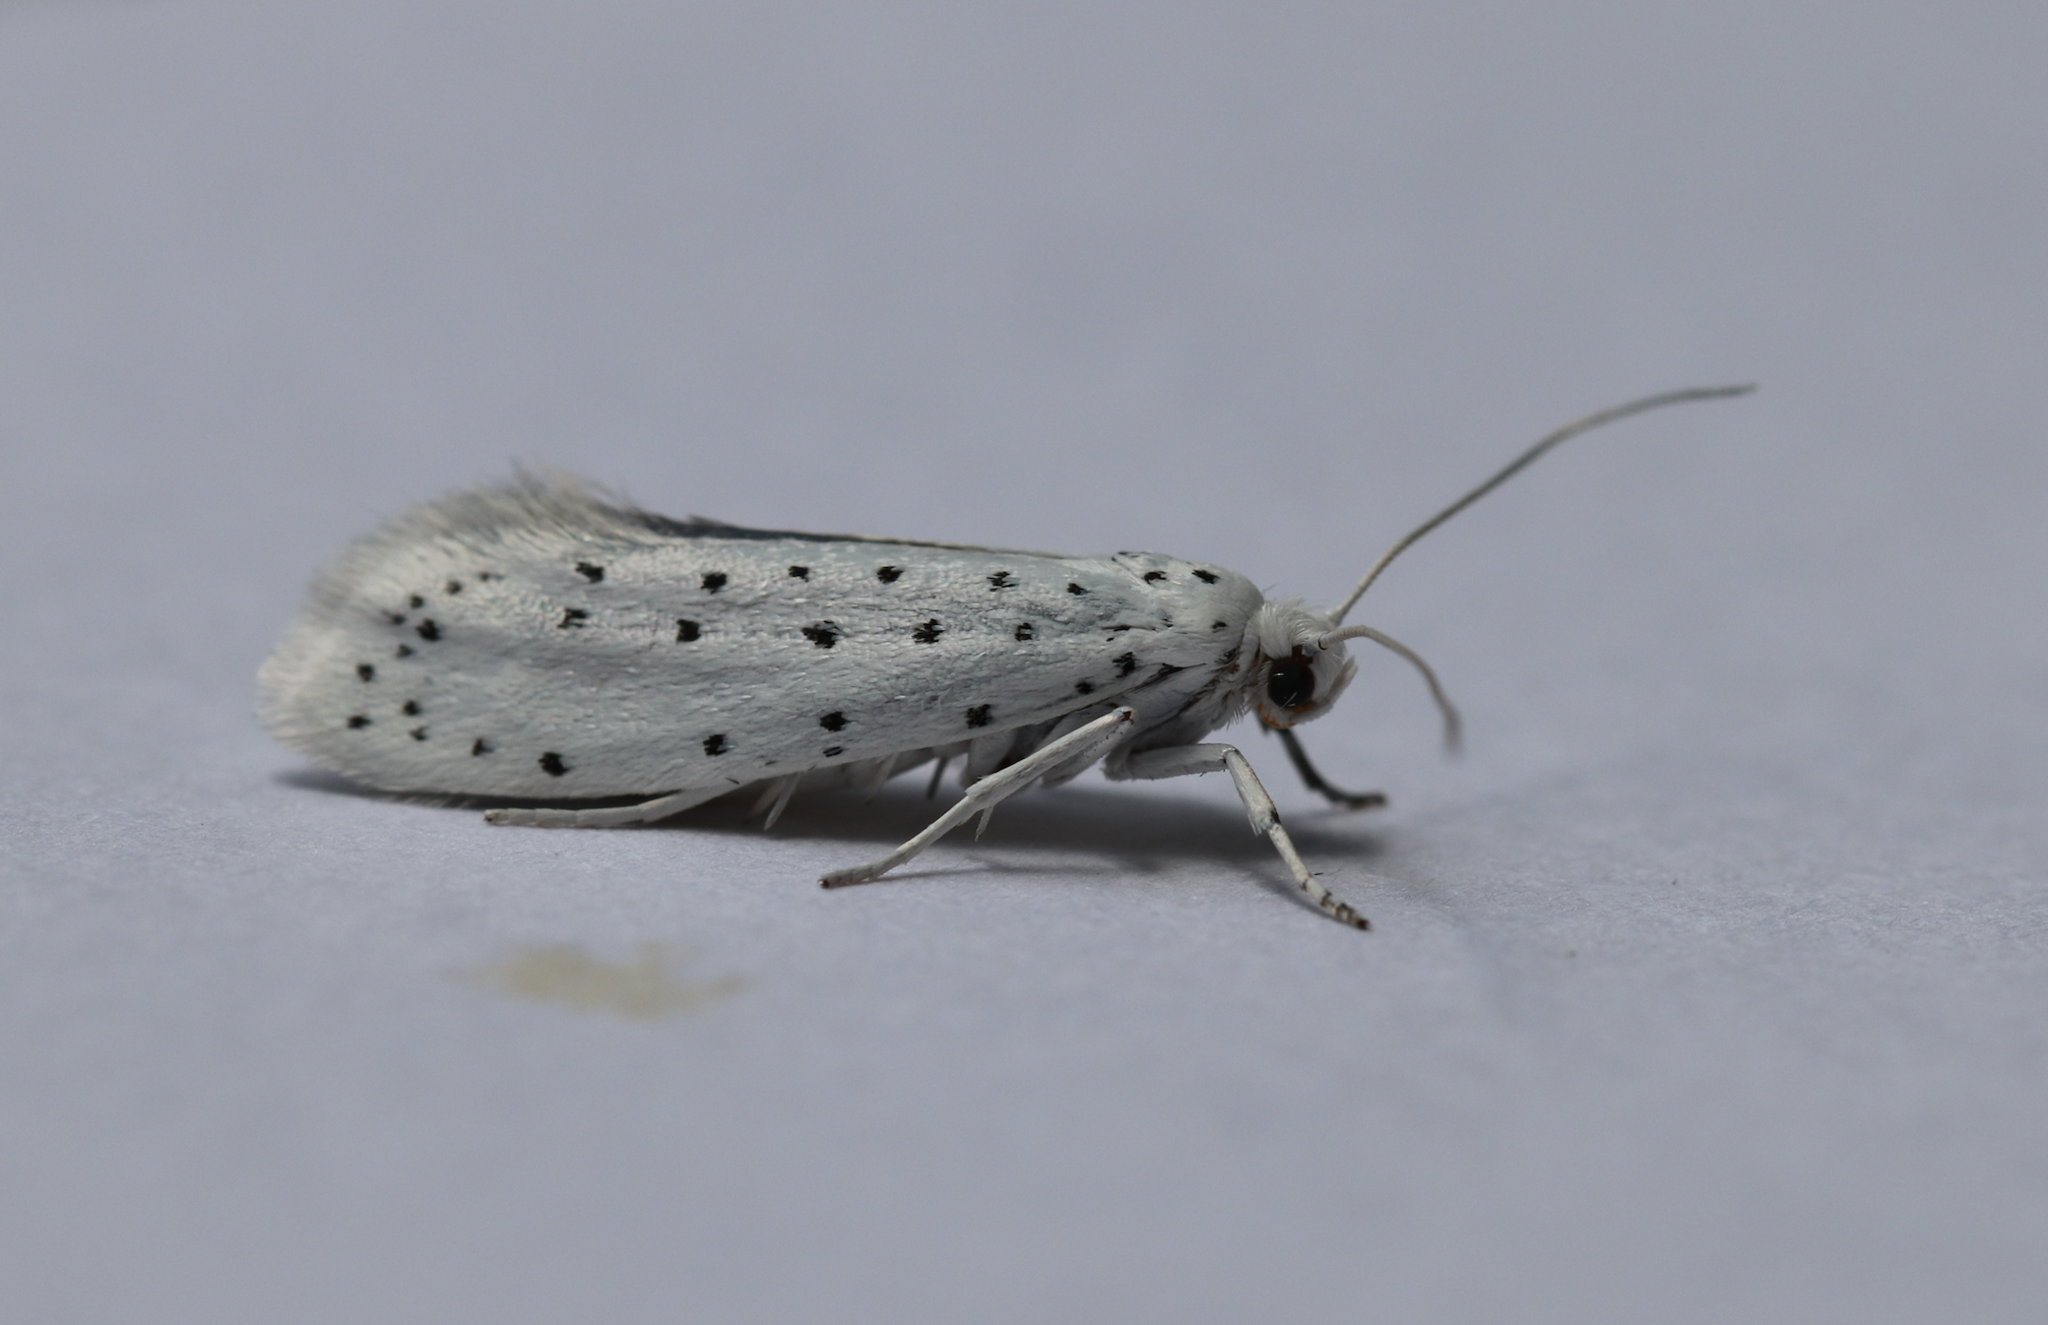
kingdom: Animalia
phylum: Arthropoda
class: Insecta
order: Lepidoptera
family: Yponomeutidae
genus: Yponomeuta
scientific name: Yponomeuta cagnagellus
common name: Spindle ermine
